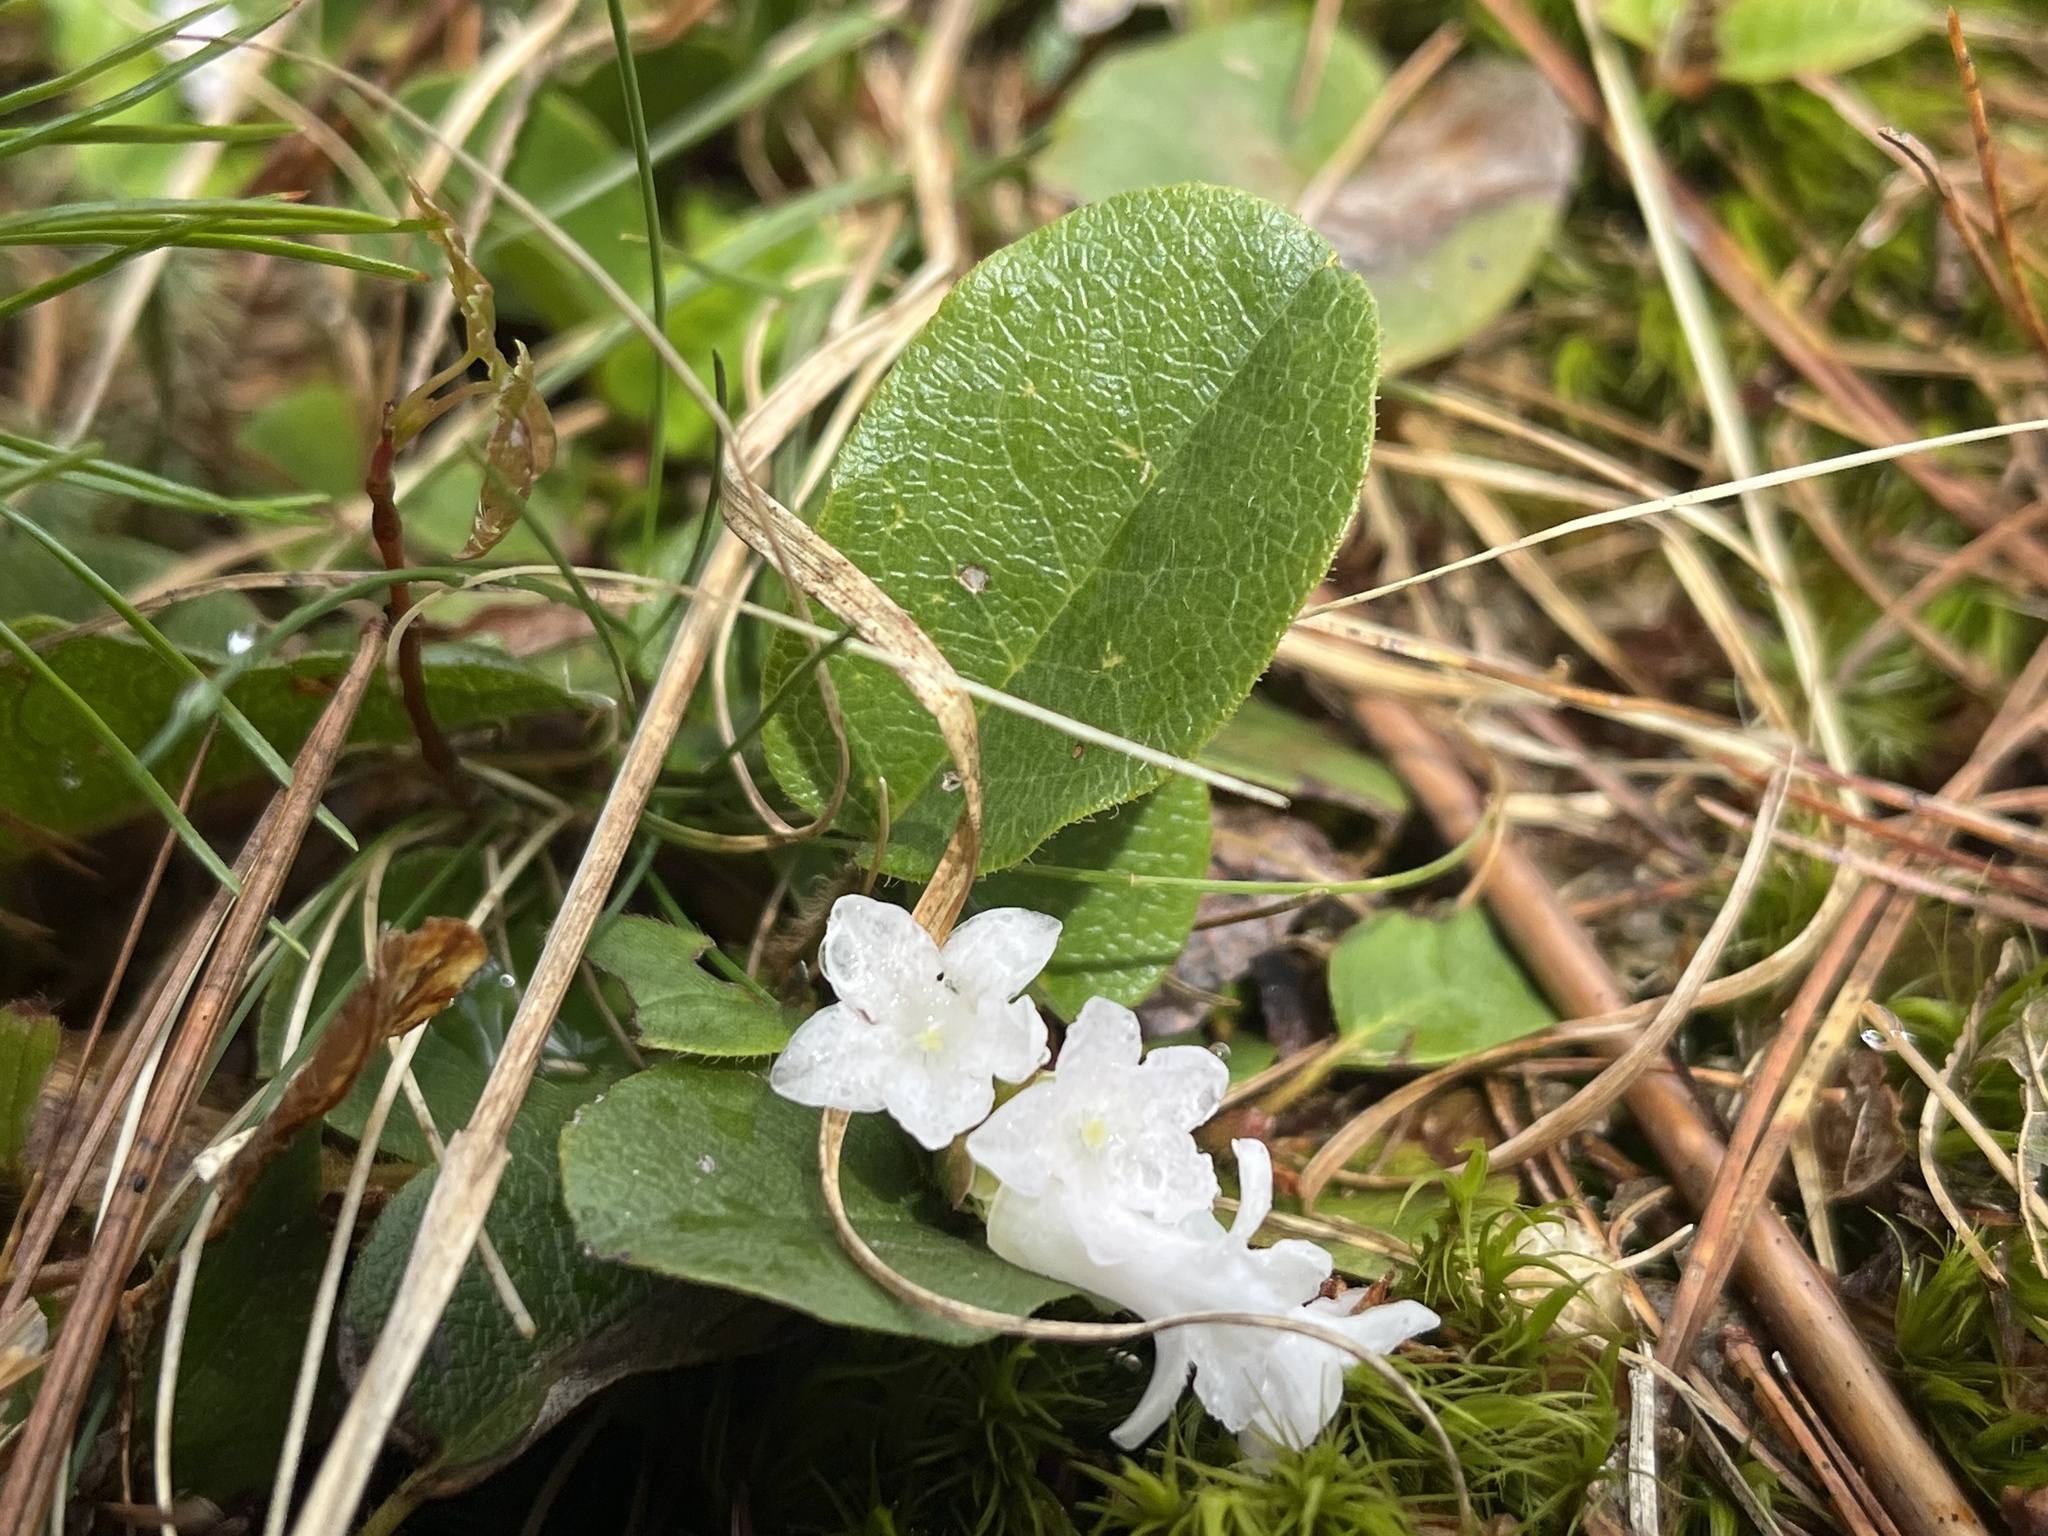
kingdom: Plantae
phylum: Tracheophyta
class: Magnoliopsida
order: Ericales
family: Ericaceae
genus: Epigaea
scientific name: Epigaea repens
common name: Gravelroot
